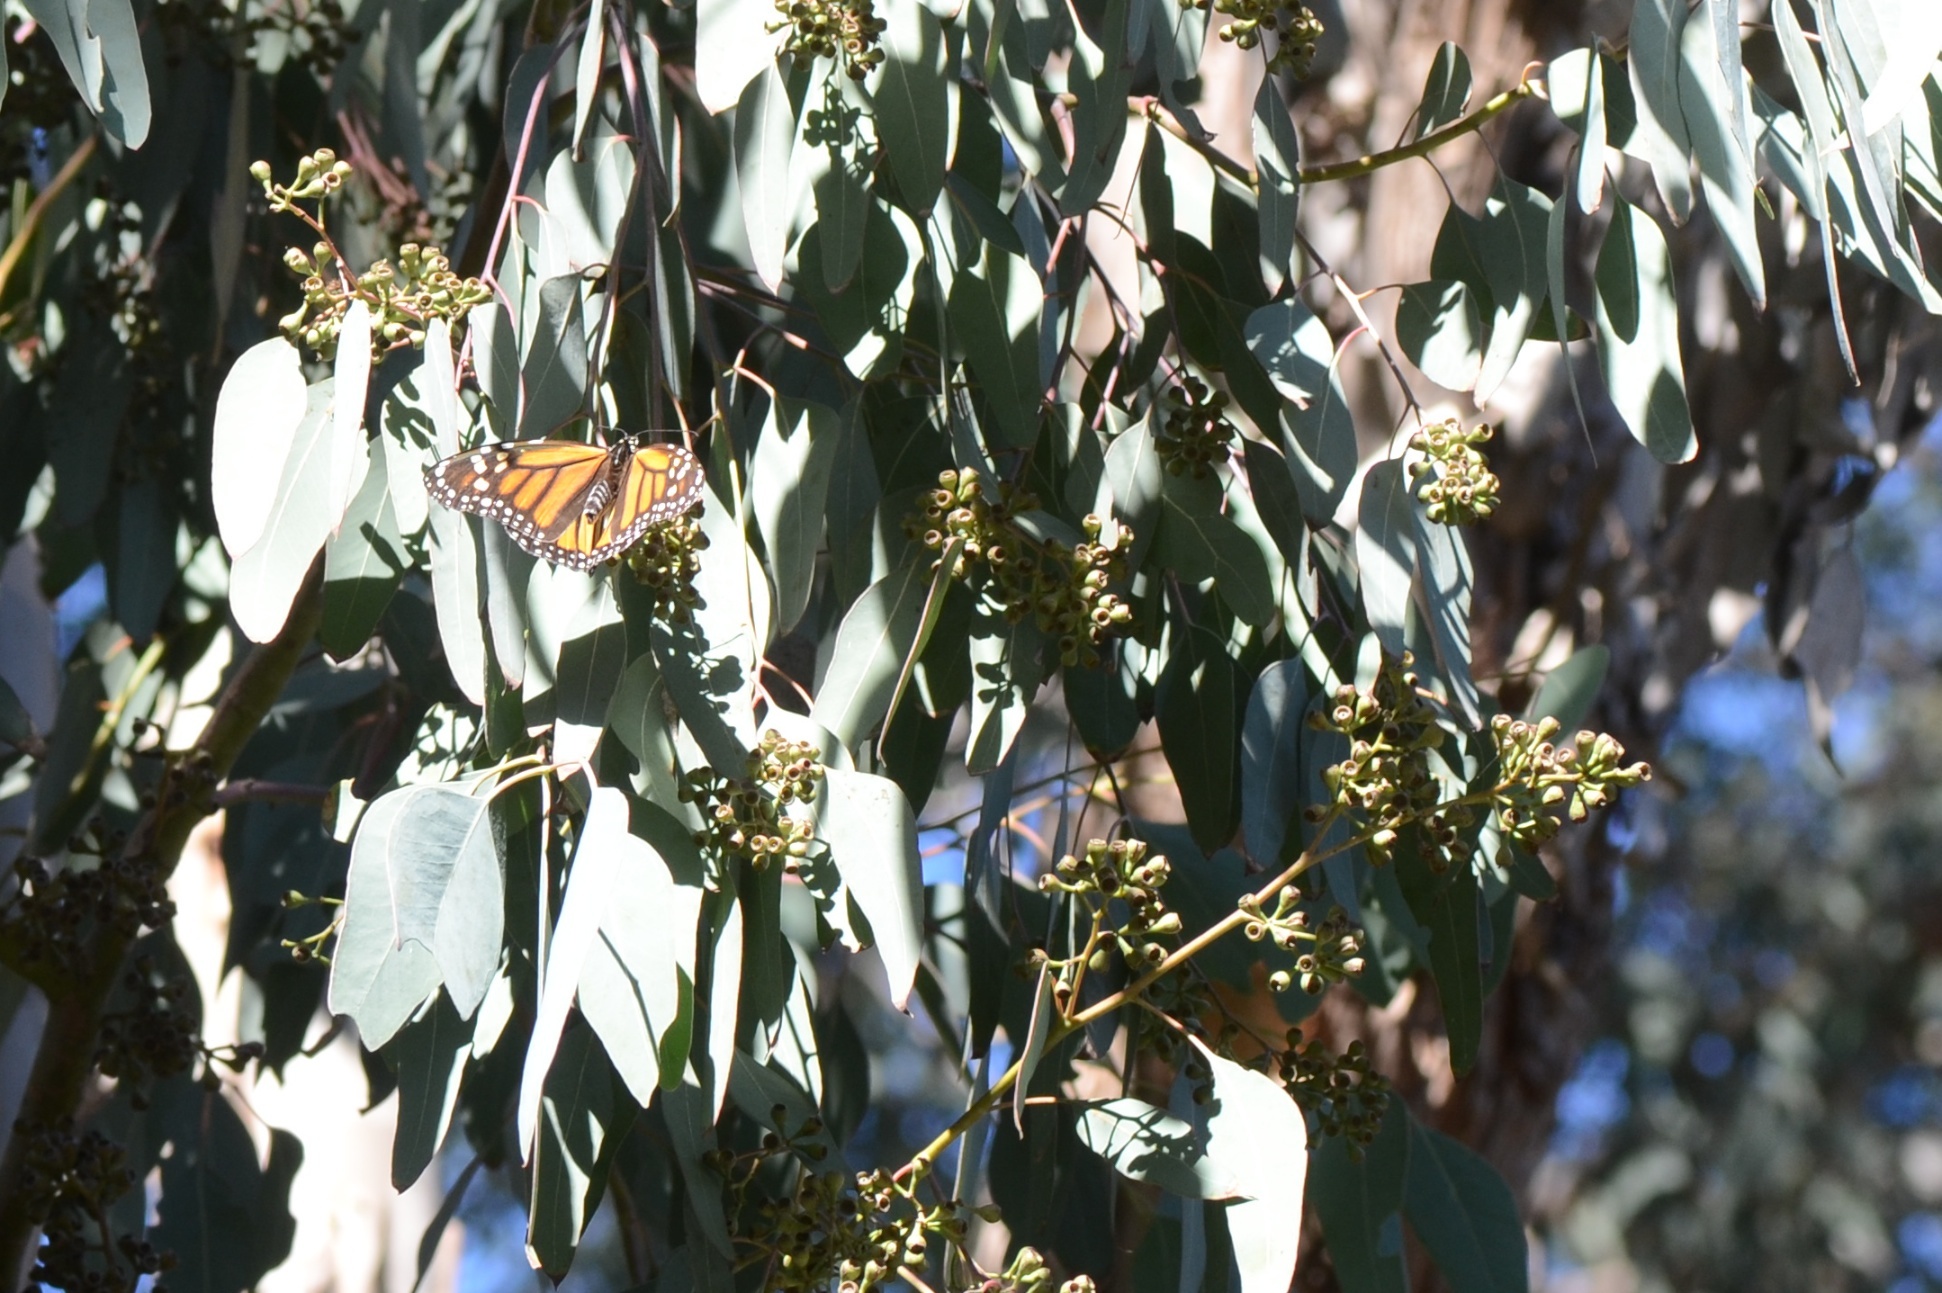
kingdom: Animalia
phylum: Arthropoda
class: Insecta
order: Lepidoptera
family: Nymphalidae
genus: Danaus
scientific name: Danaus plexippus
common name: Monarch
